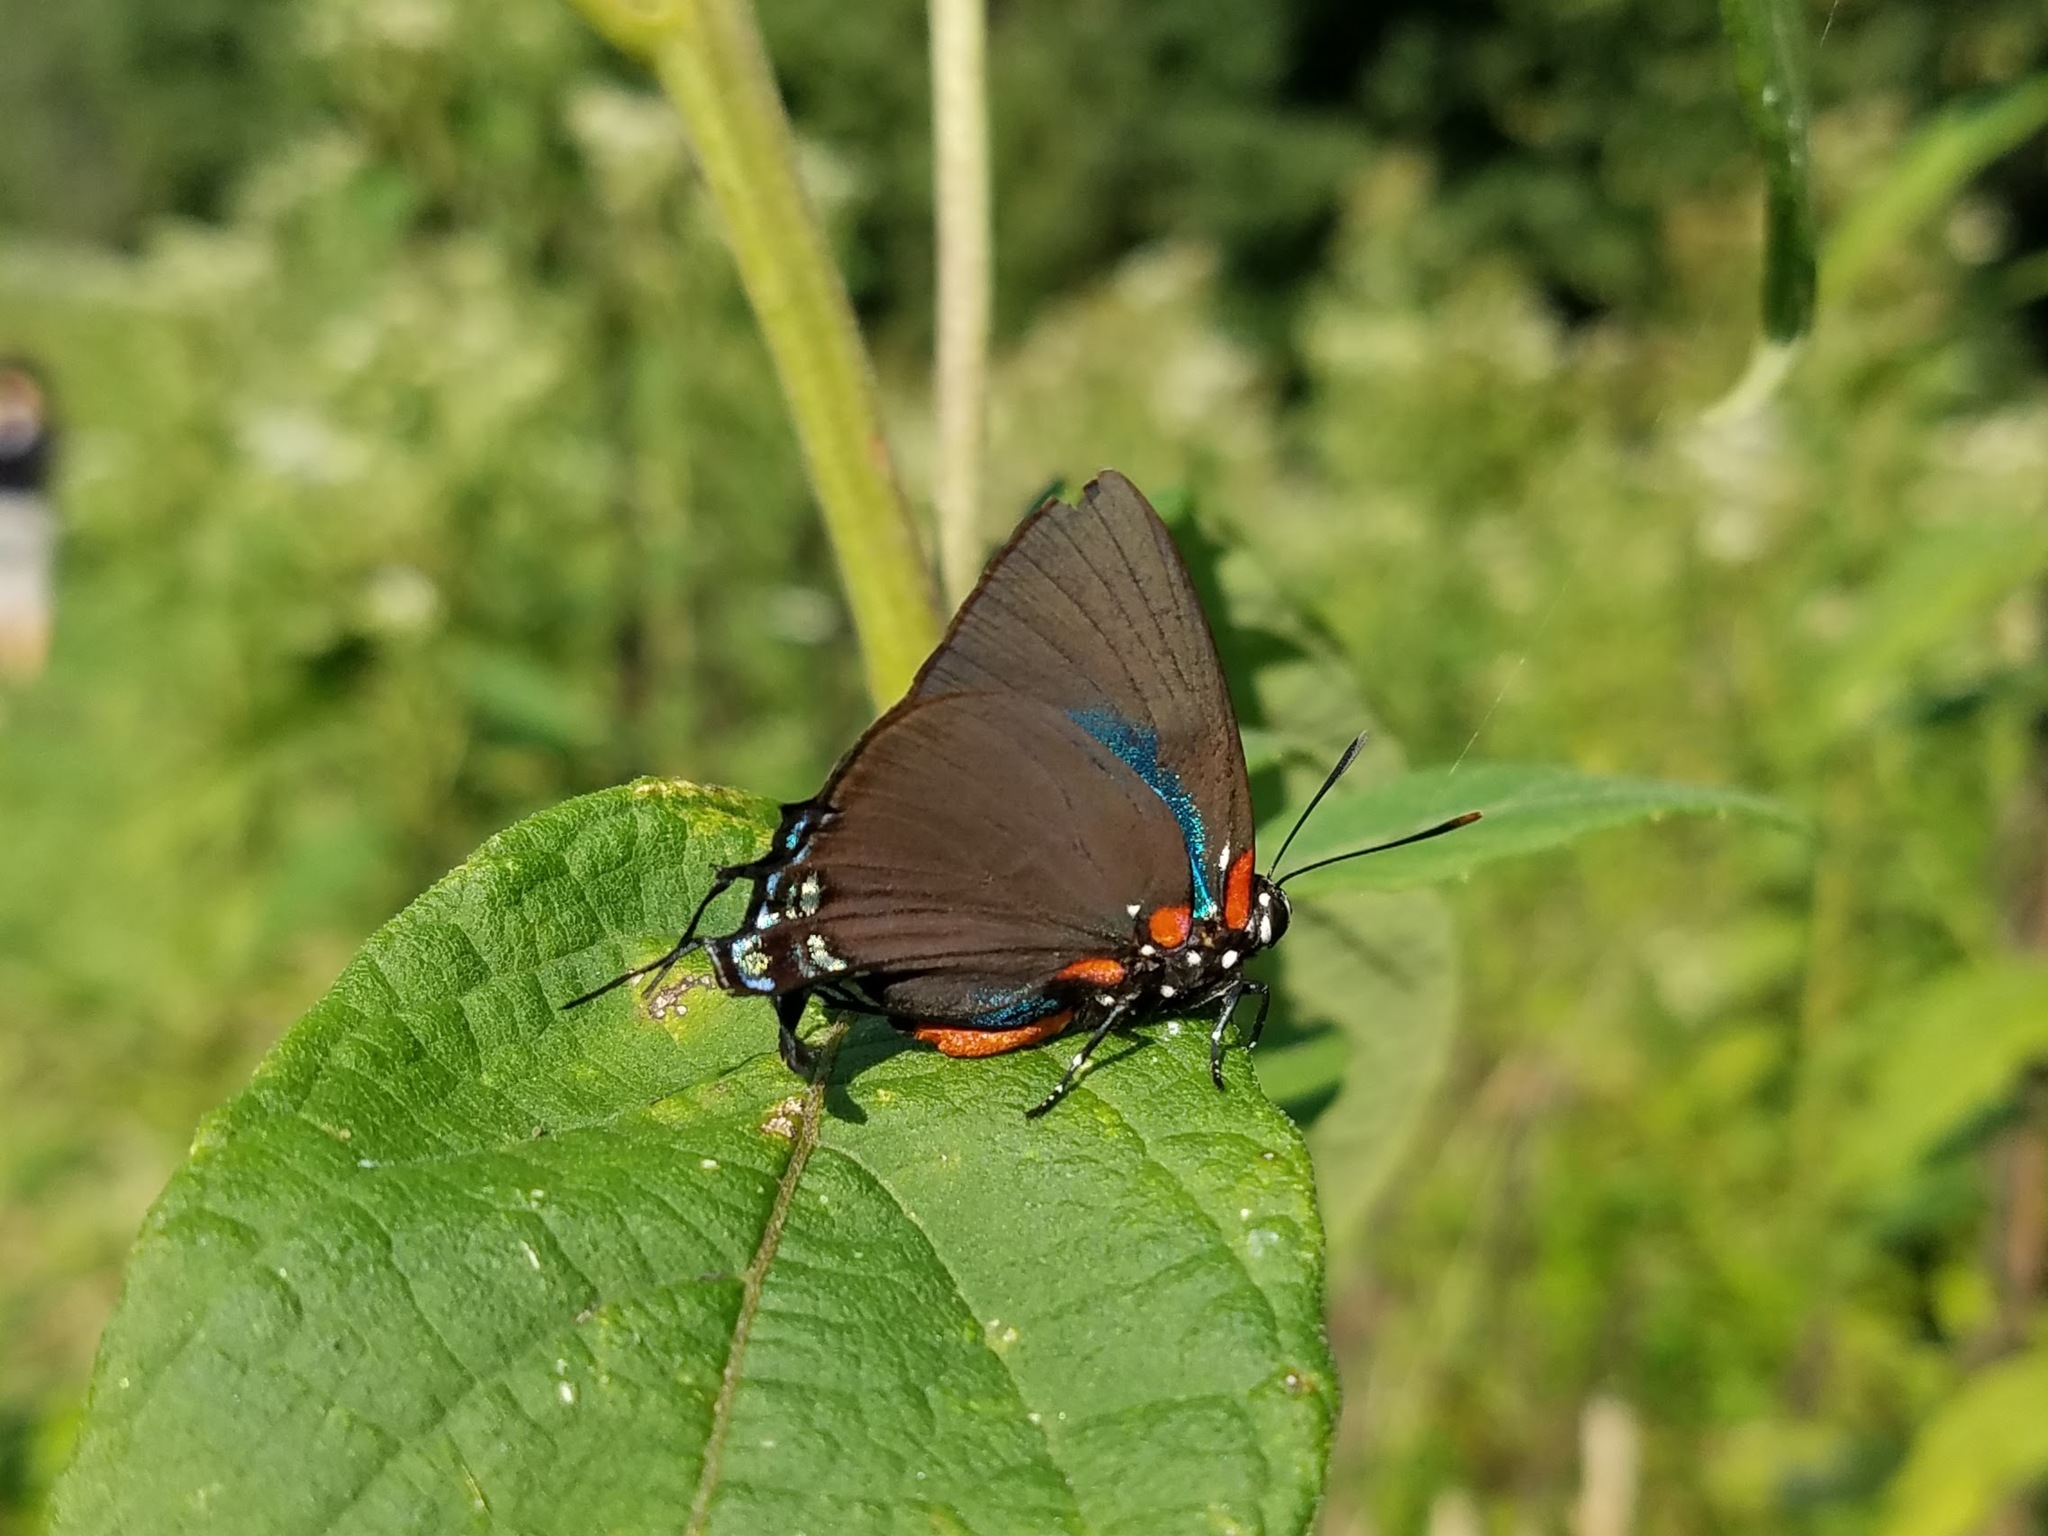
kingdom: Animalia
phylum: Arthropoda
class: Insecta
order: Lepidoptera
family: Lycaenidae
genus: Atlides
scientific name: Atlides halesus
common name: Great purple hairstreak
